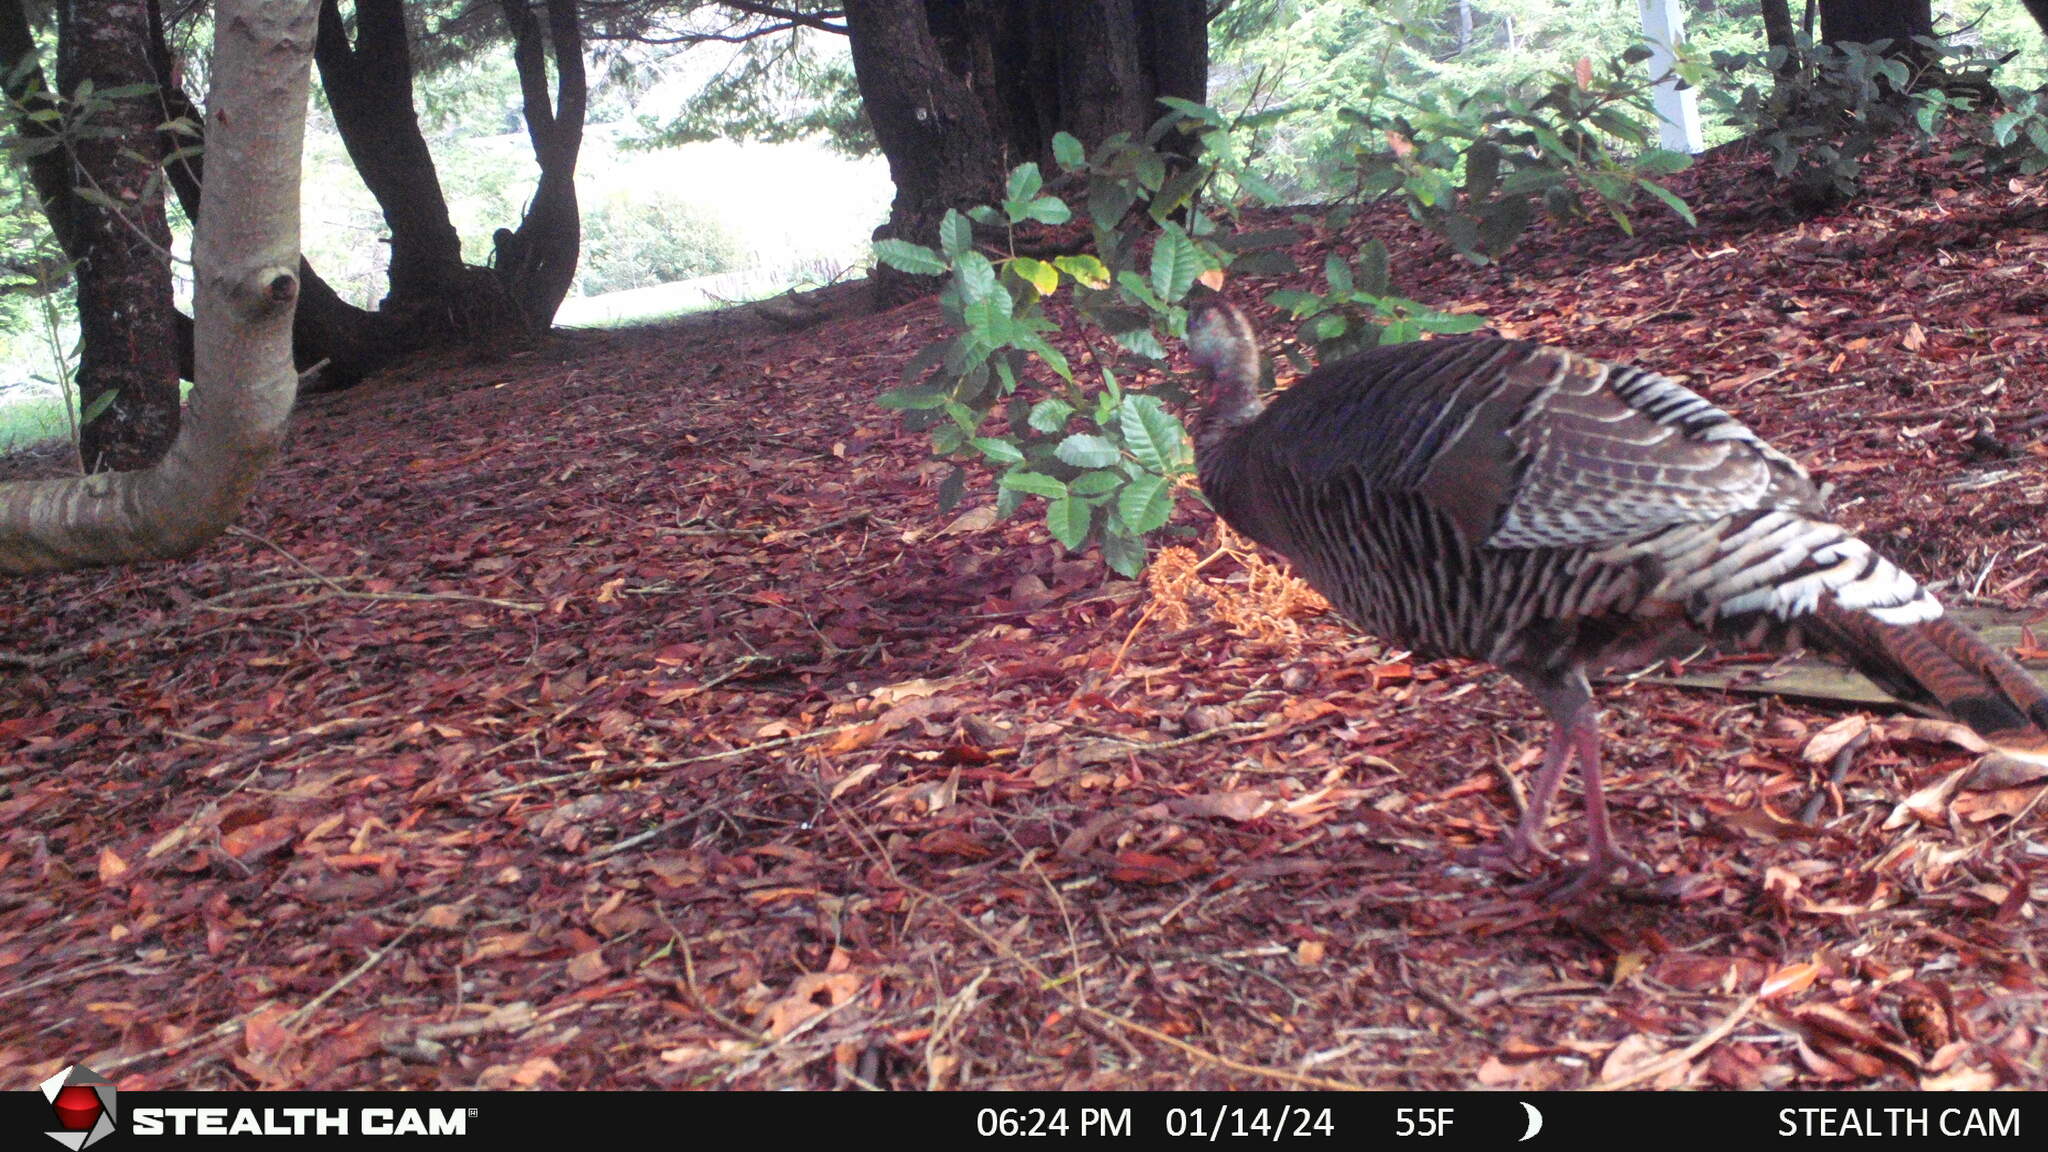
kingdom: Animalia
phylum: Chordata
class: Aves
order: Galliformes
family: Phasianidae
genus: Meleagris
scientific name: Meleagris gallopavo
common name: Wild turkey
